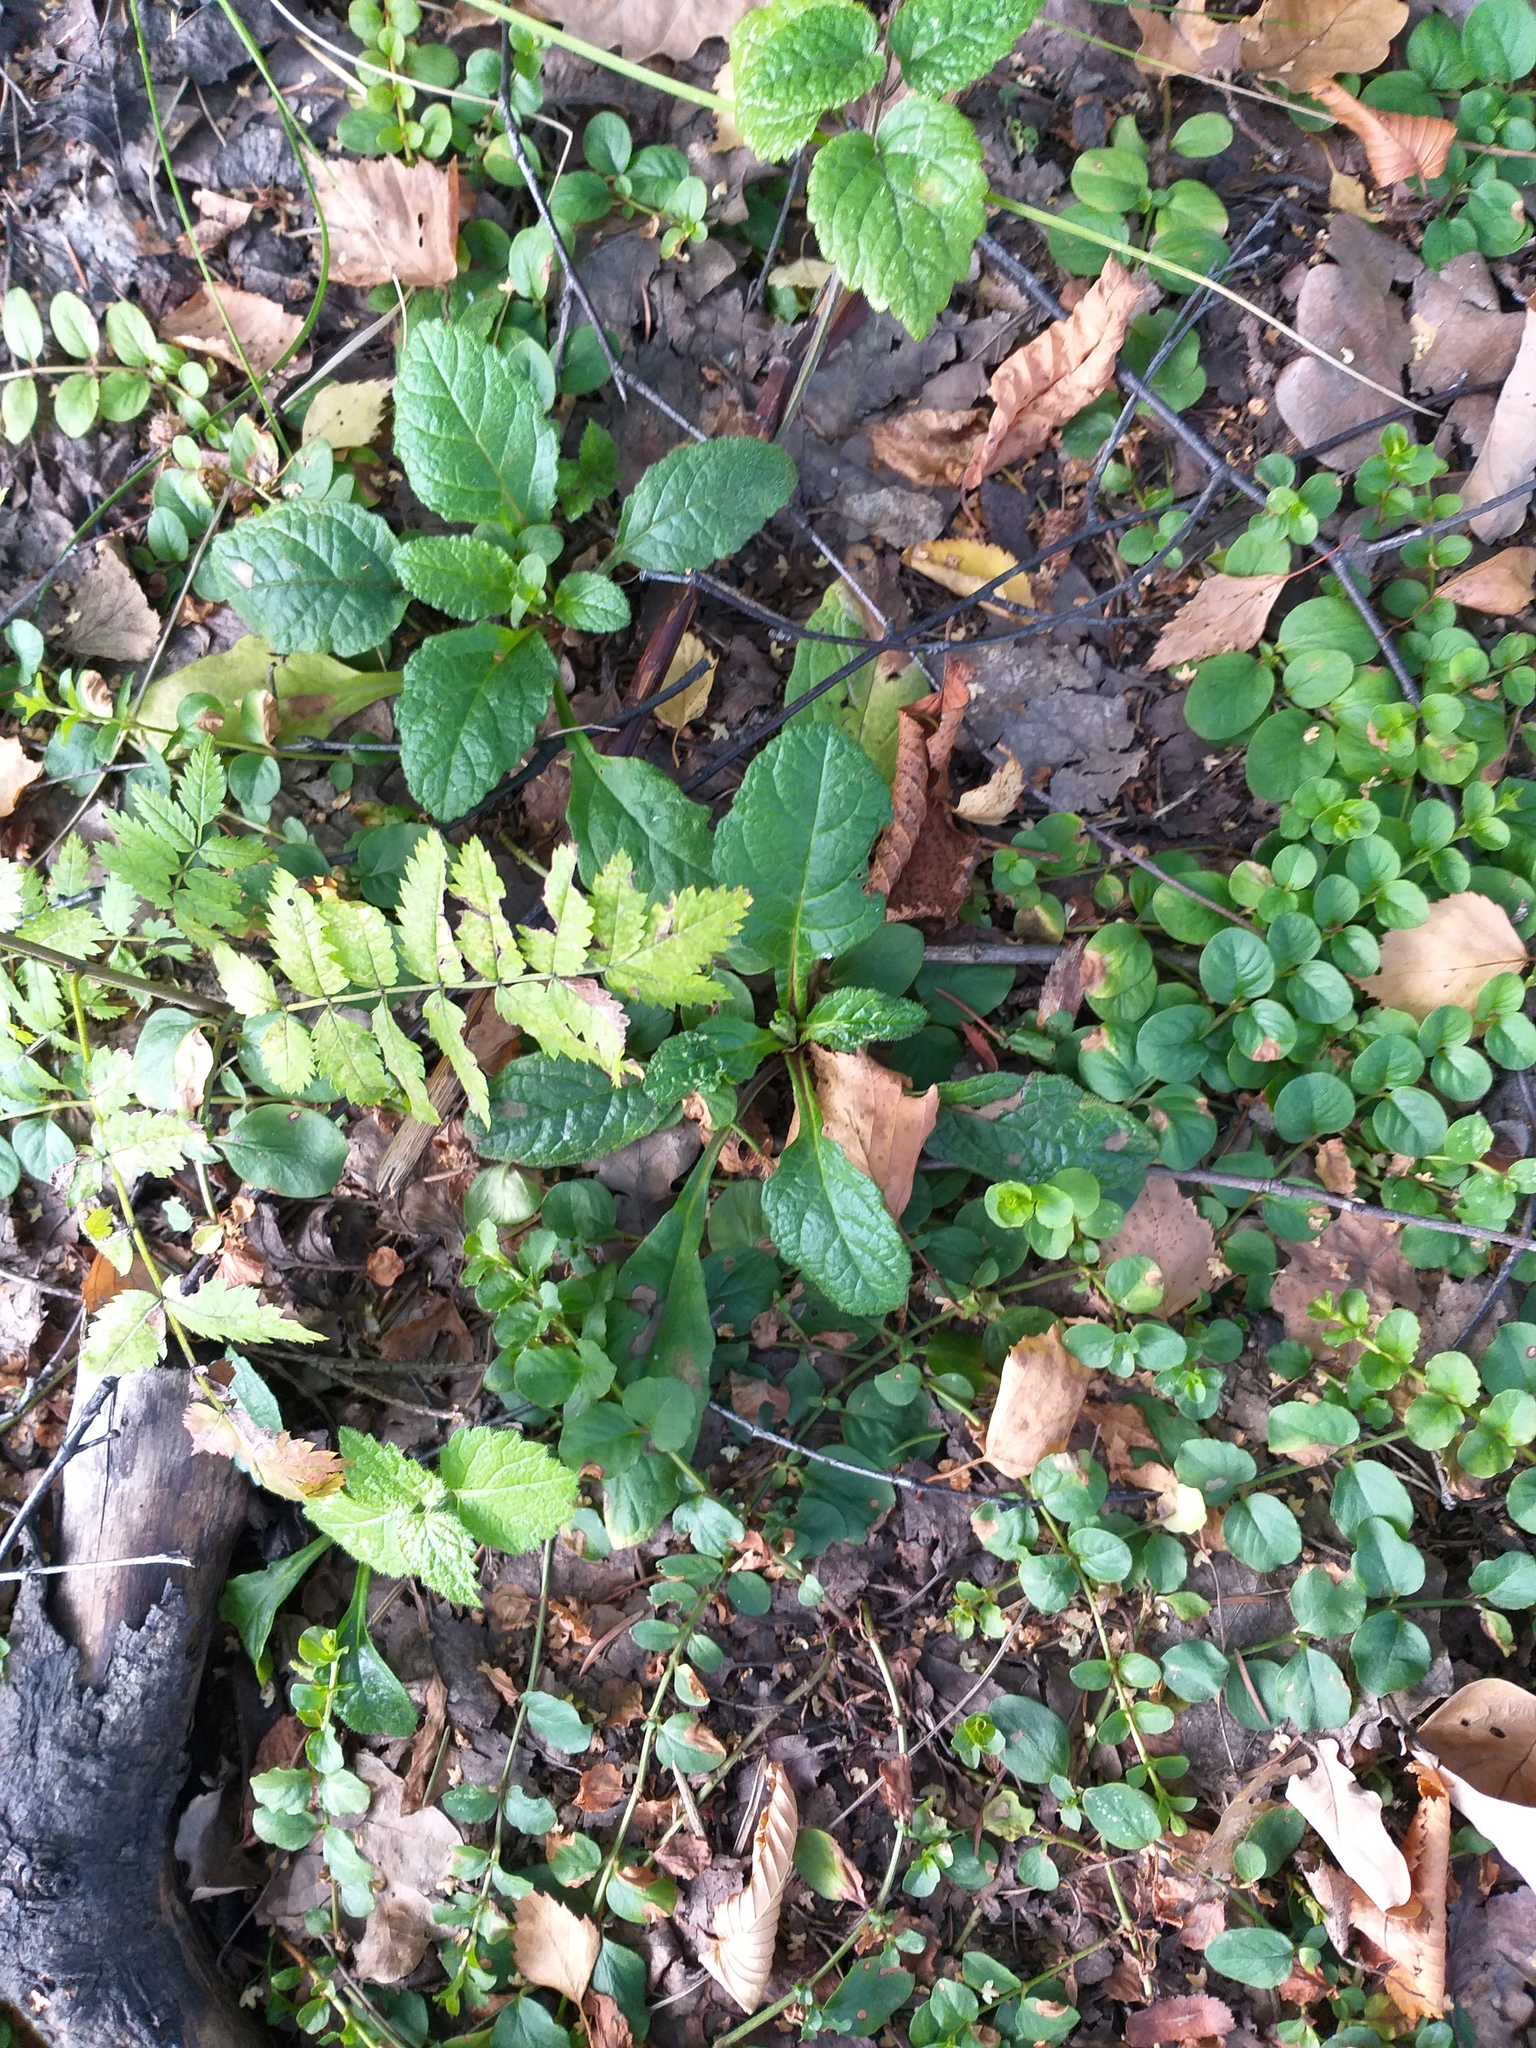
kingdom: Plantae
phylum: Tracheophyta
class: Magnoliopsida
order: Lamiales
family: Lamiaceae
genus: Ajuga
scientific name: Ajuga reptans
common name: Bugle
